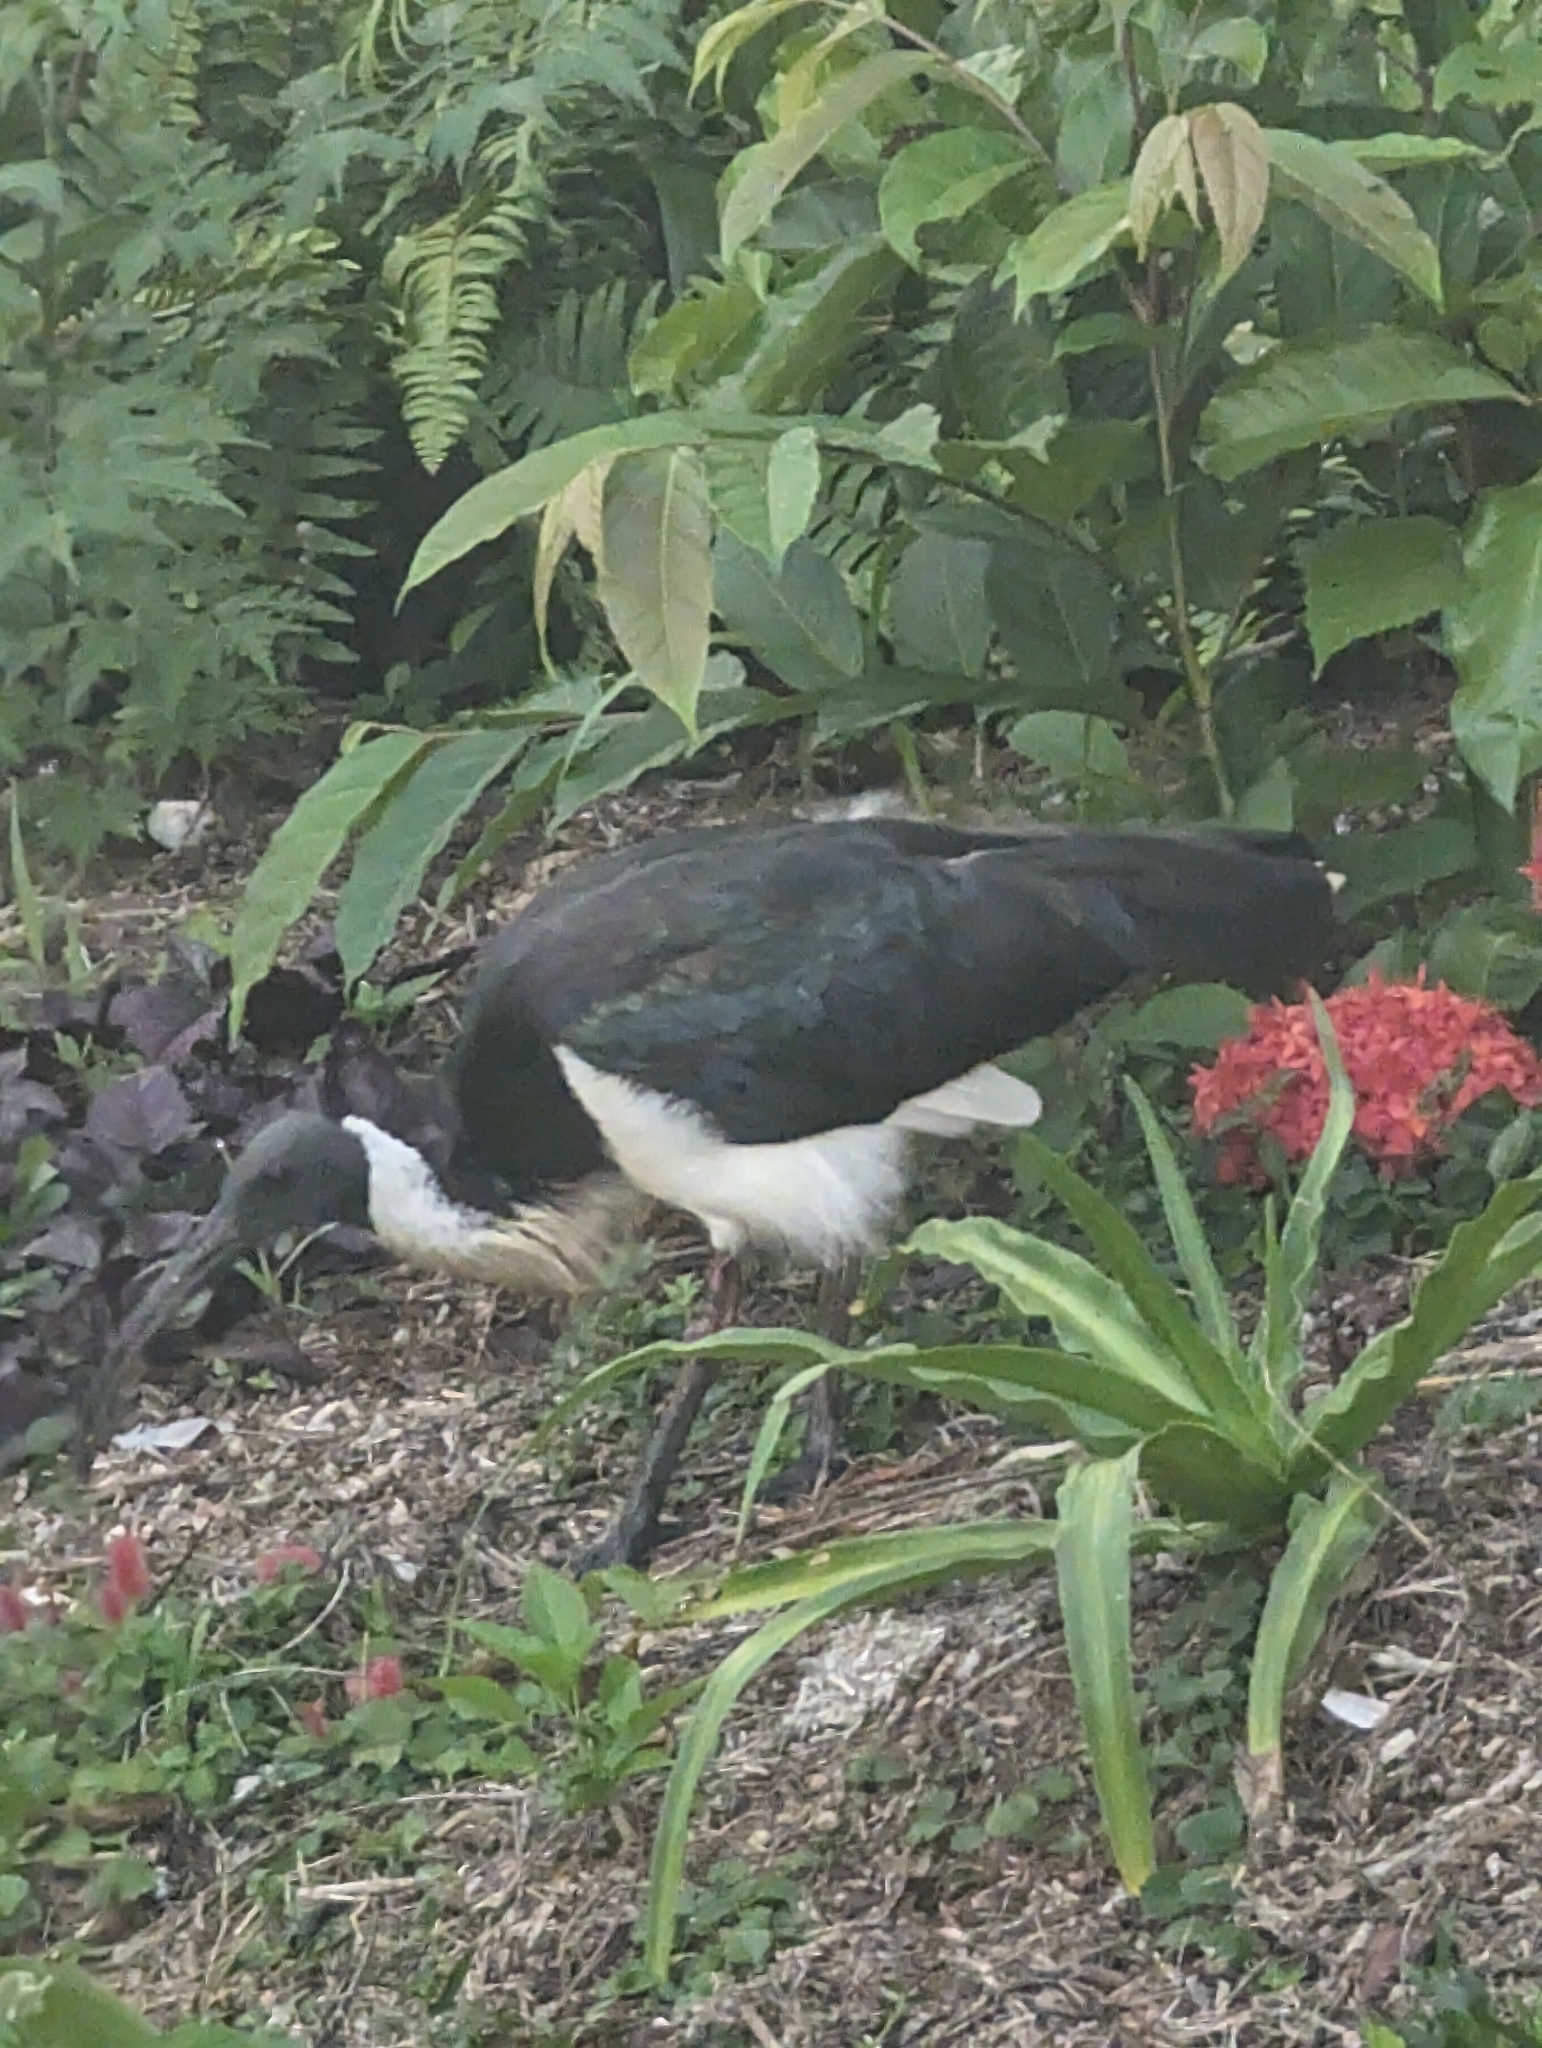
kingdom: Animalia
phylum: Chordata
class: Aves
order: Pelecaniformes
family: Threskiornithidae
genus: Threskiornis
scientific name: Threskiornis spinicollis
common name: Straw-necked ibis
